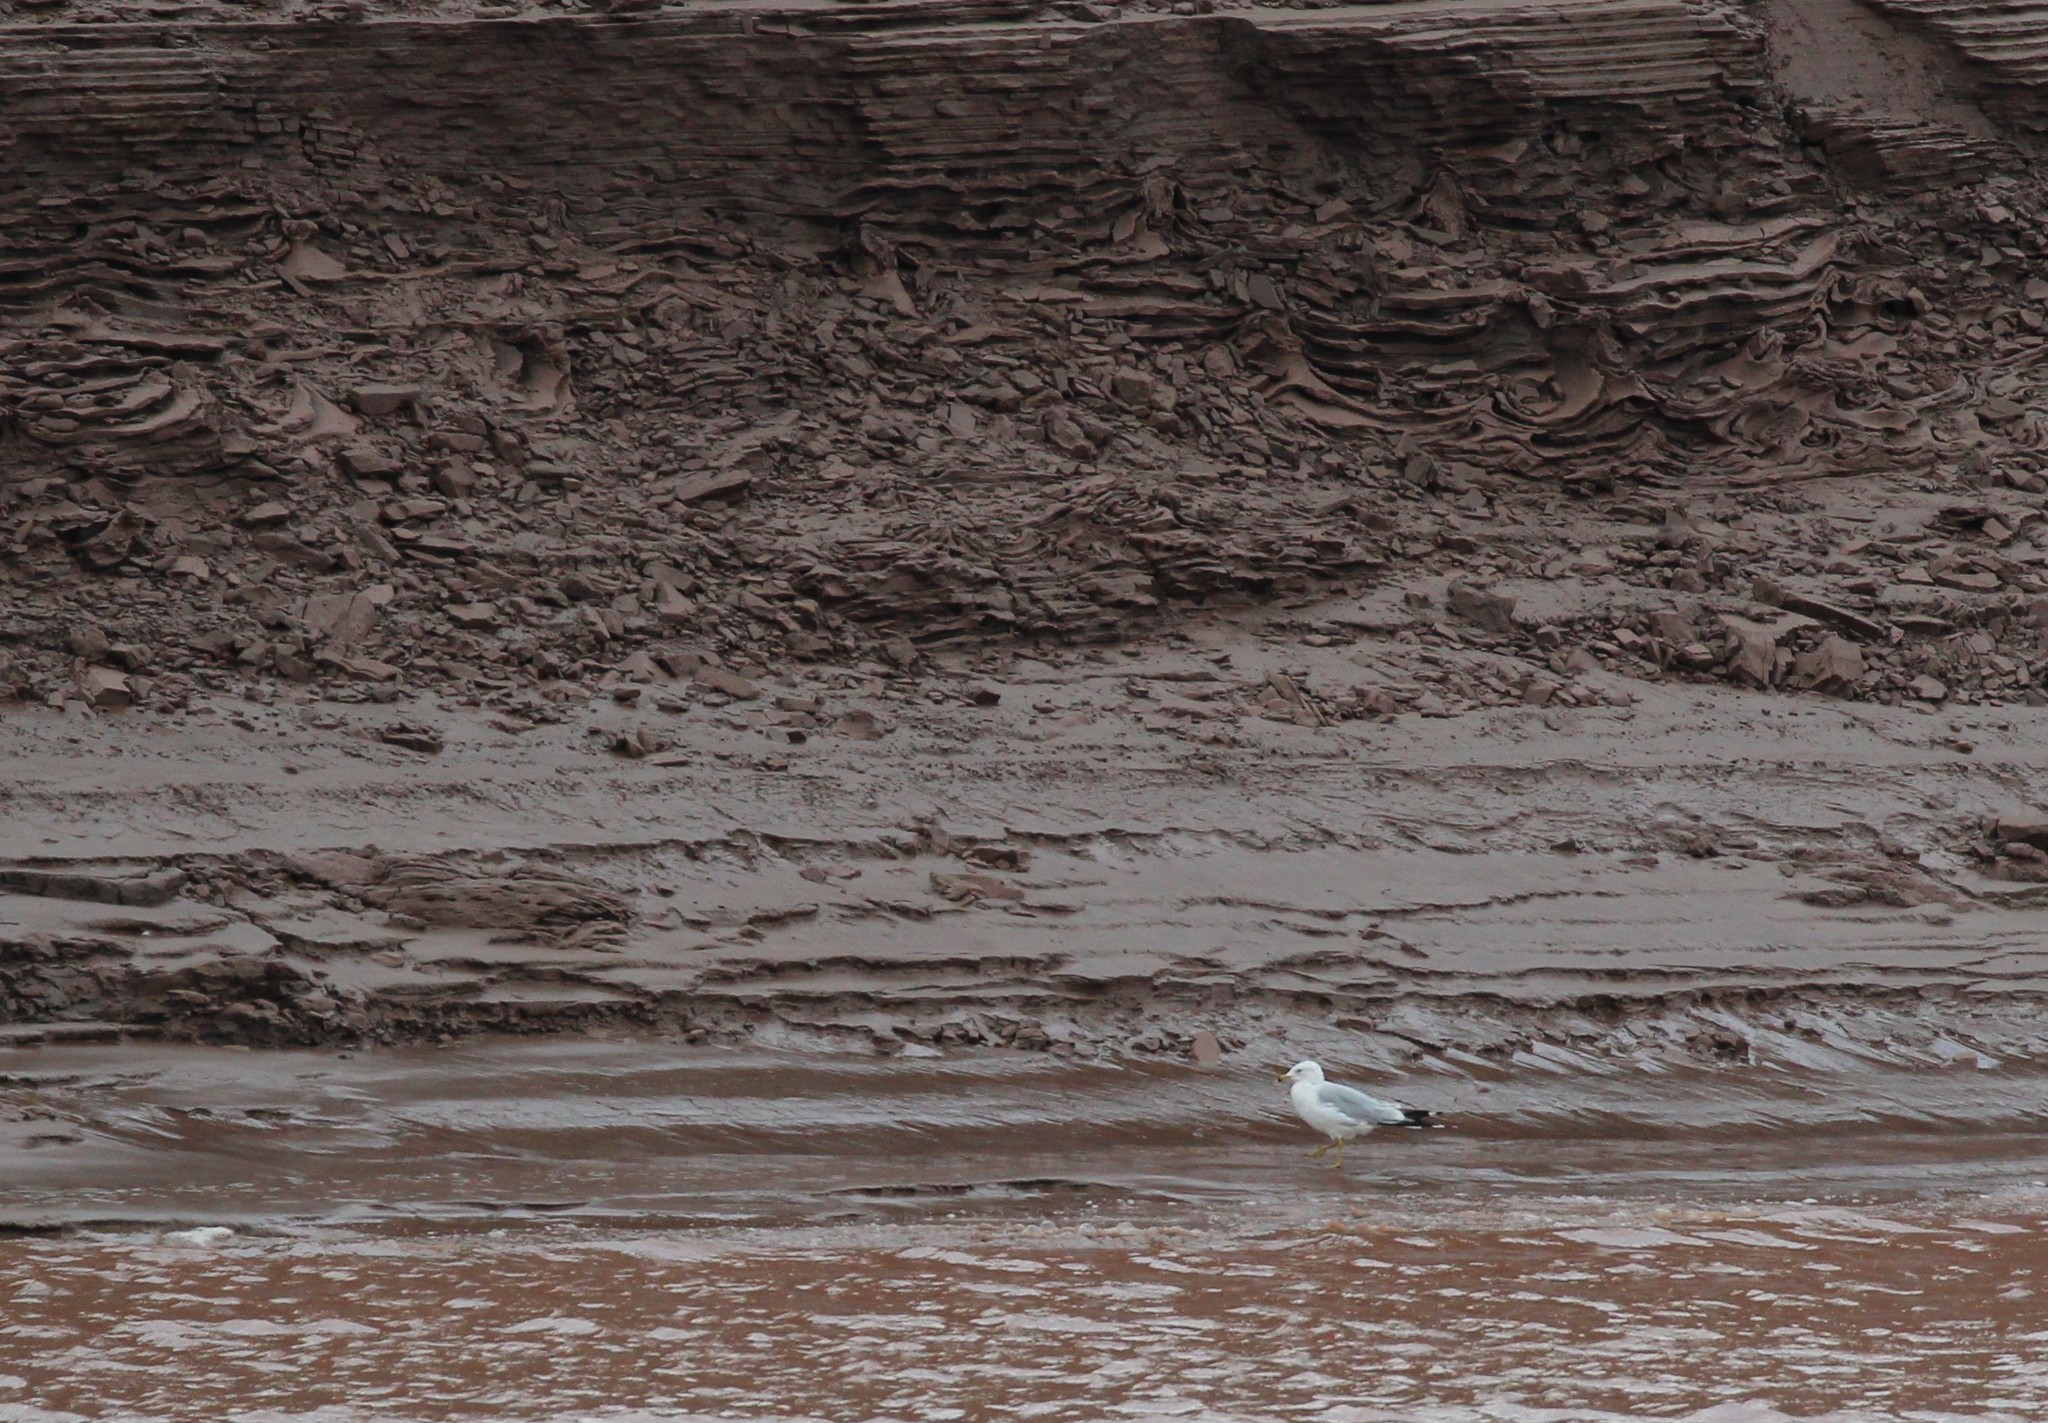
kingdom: Animalia
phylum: Chordata
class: Aves
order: Charadriiformes
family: Laridae
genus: Larus
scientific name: Larus delawarensis
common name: Ring-billed gull
